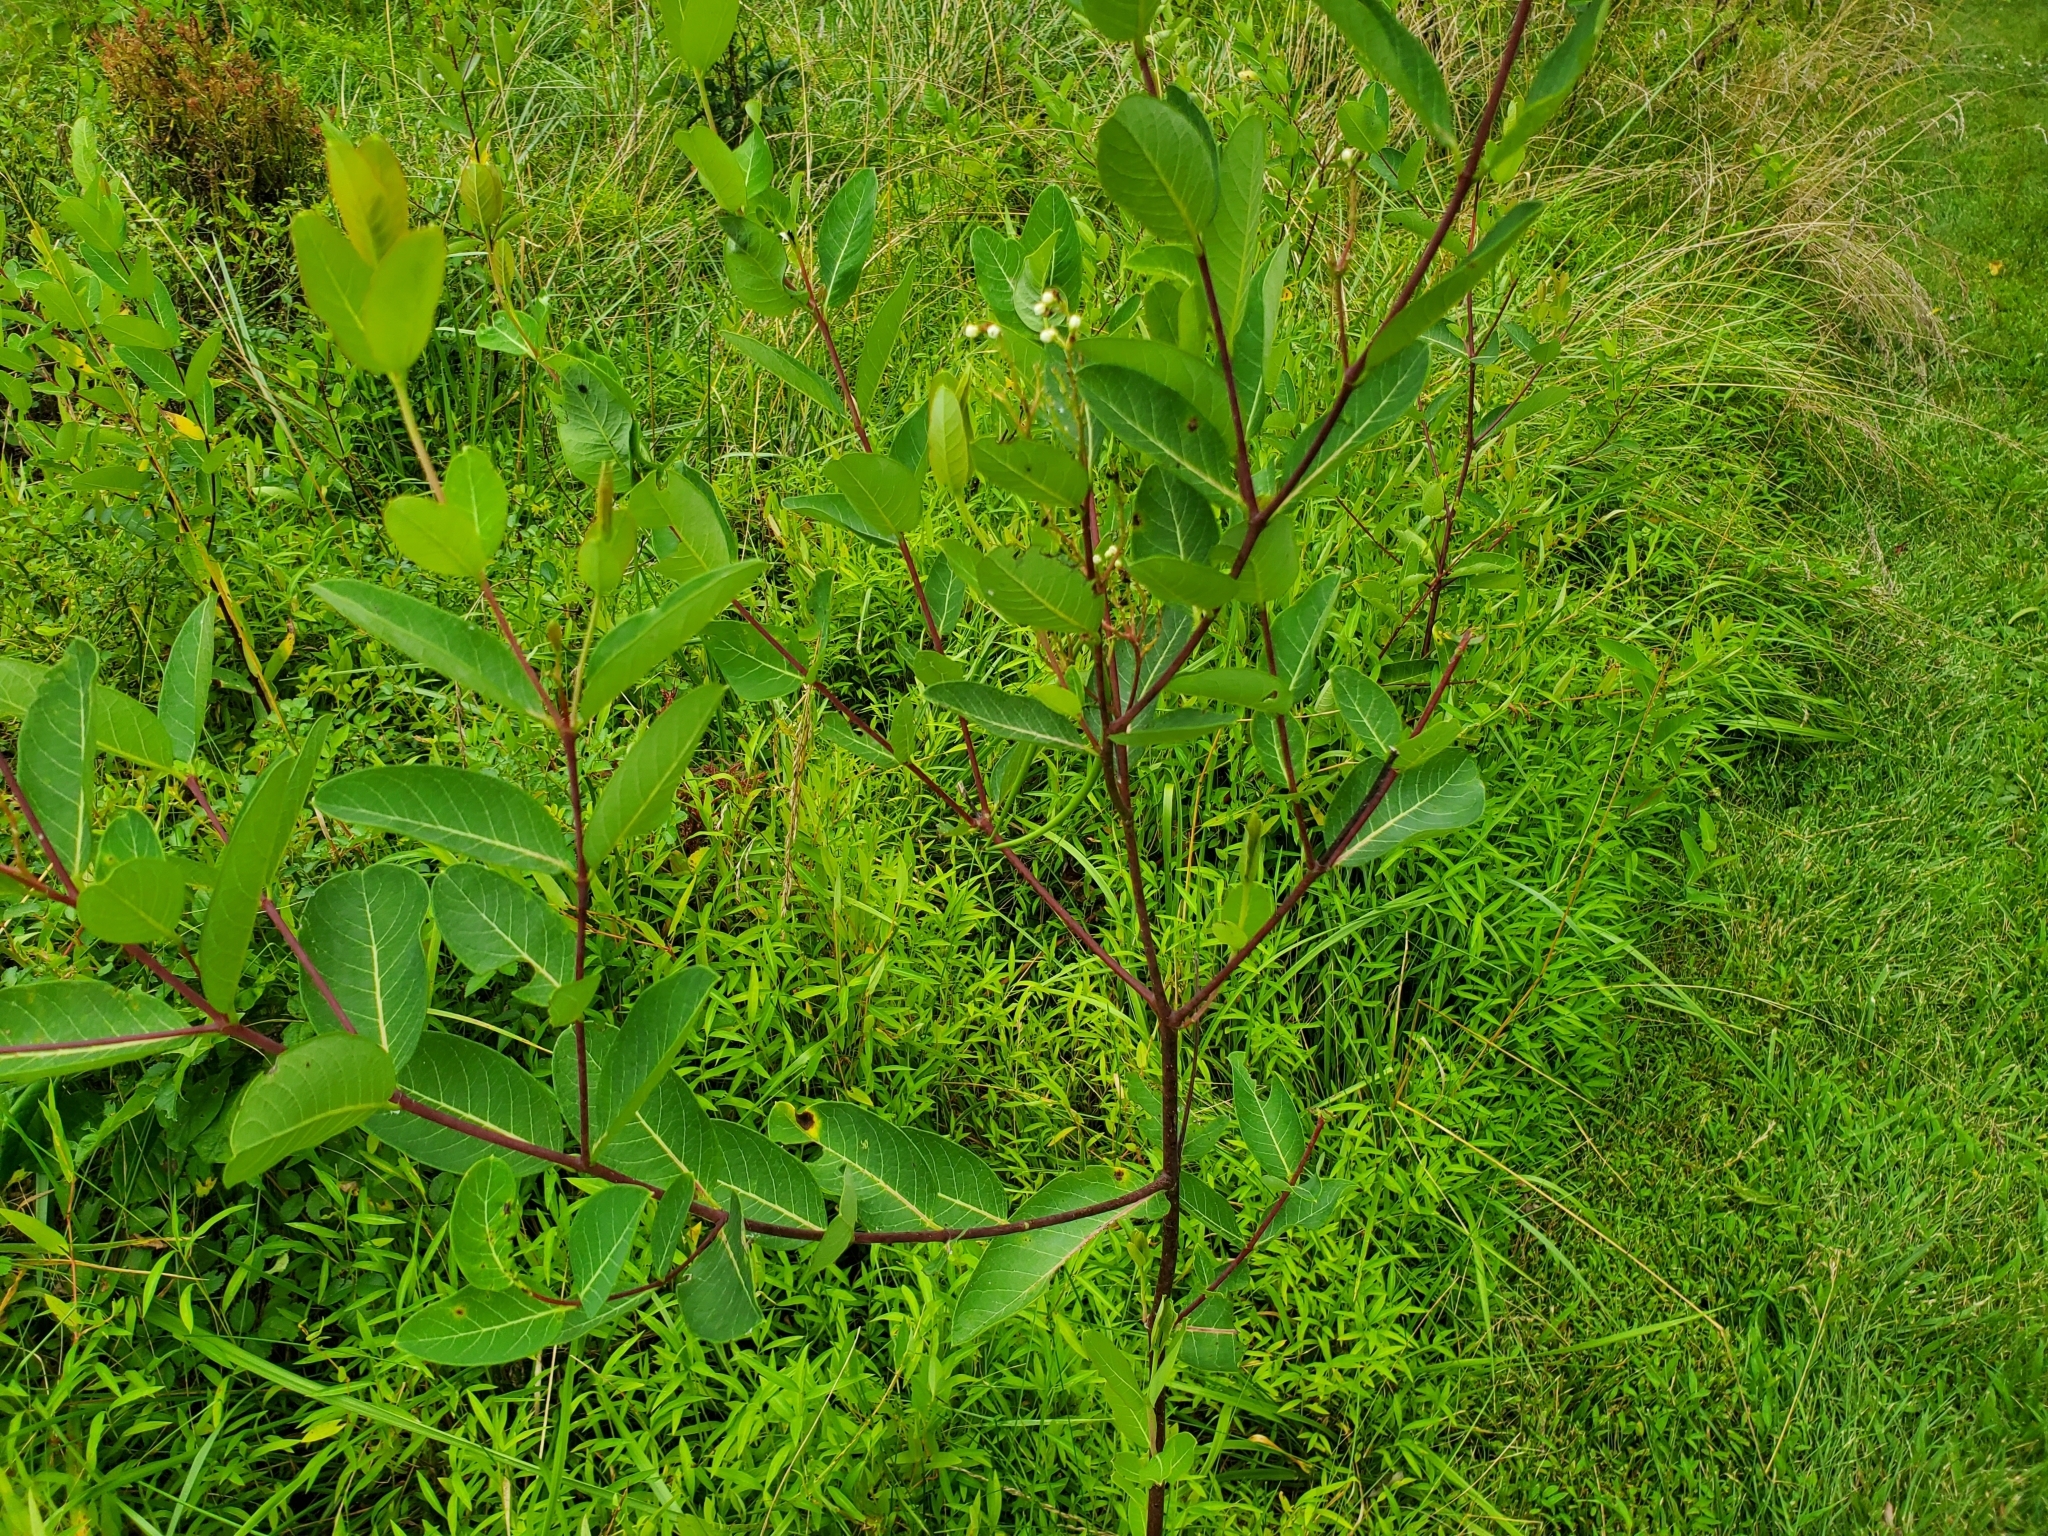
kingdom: Plantae
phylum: Tracheophyta
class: Magnoliopsida
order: Gentianales
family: Apocynaceae
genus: Apocynum
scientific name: Apocynum cannabinum
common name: Hemp dogbane
